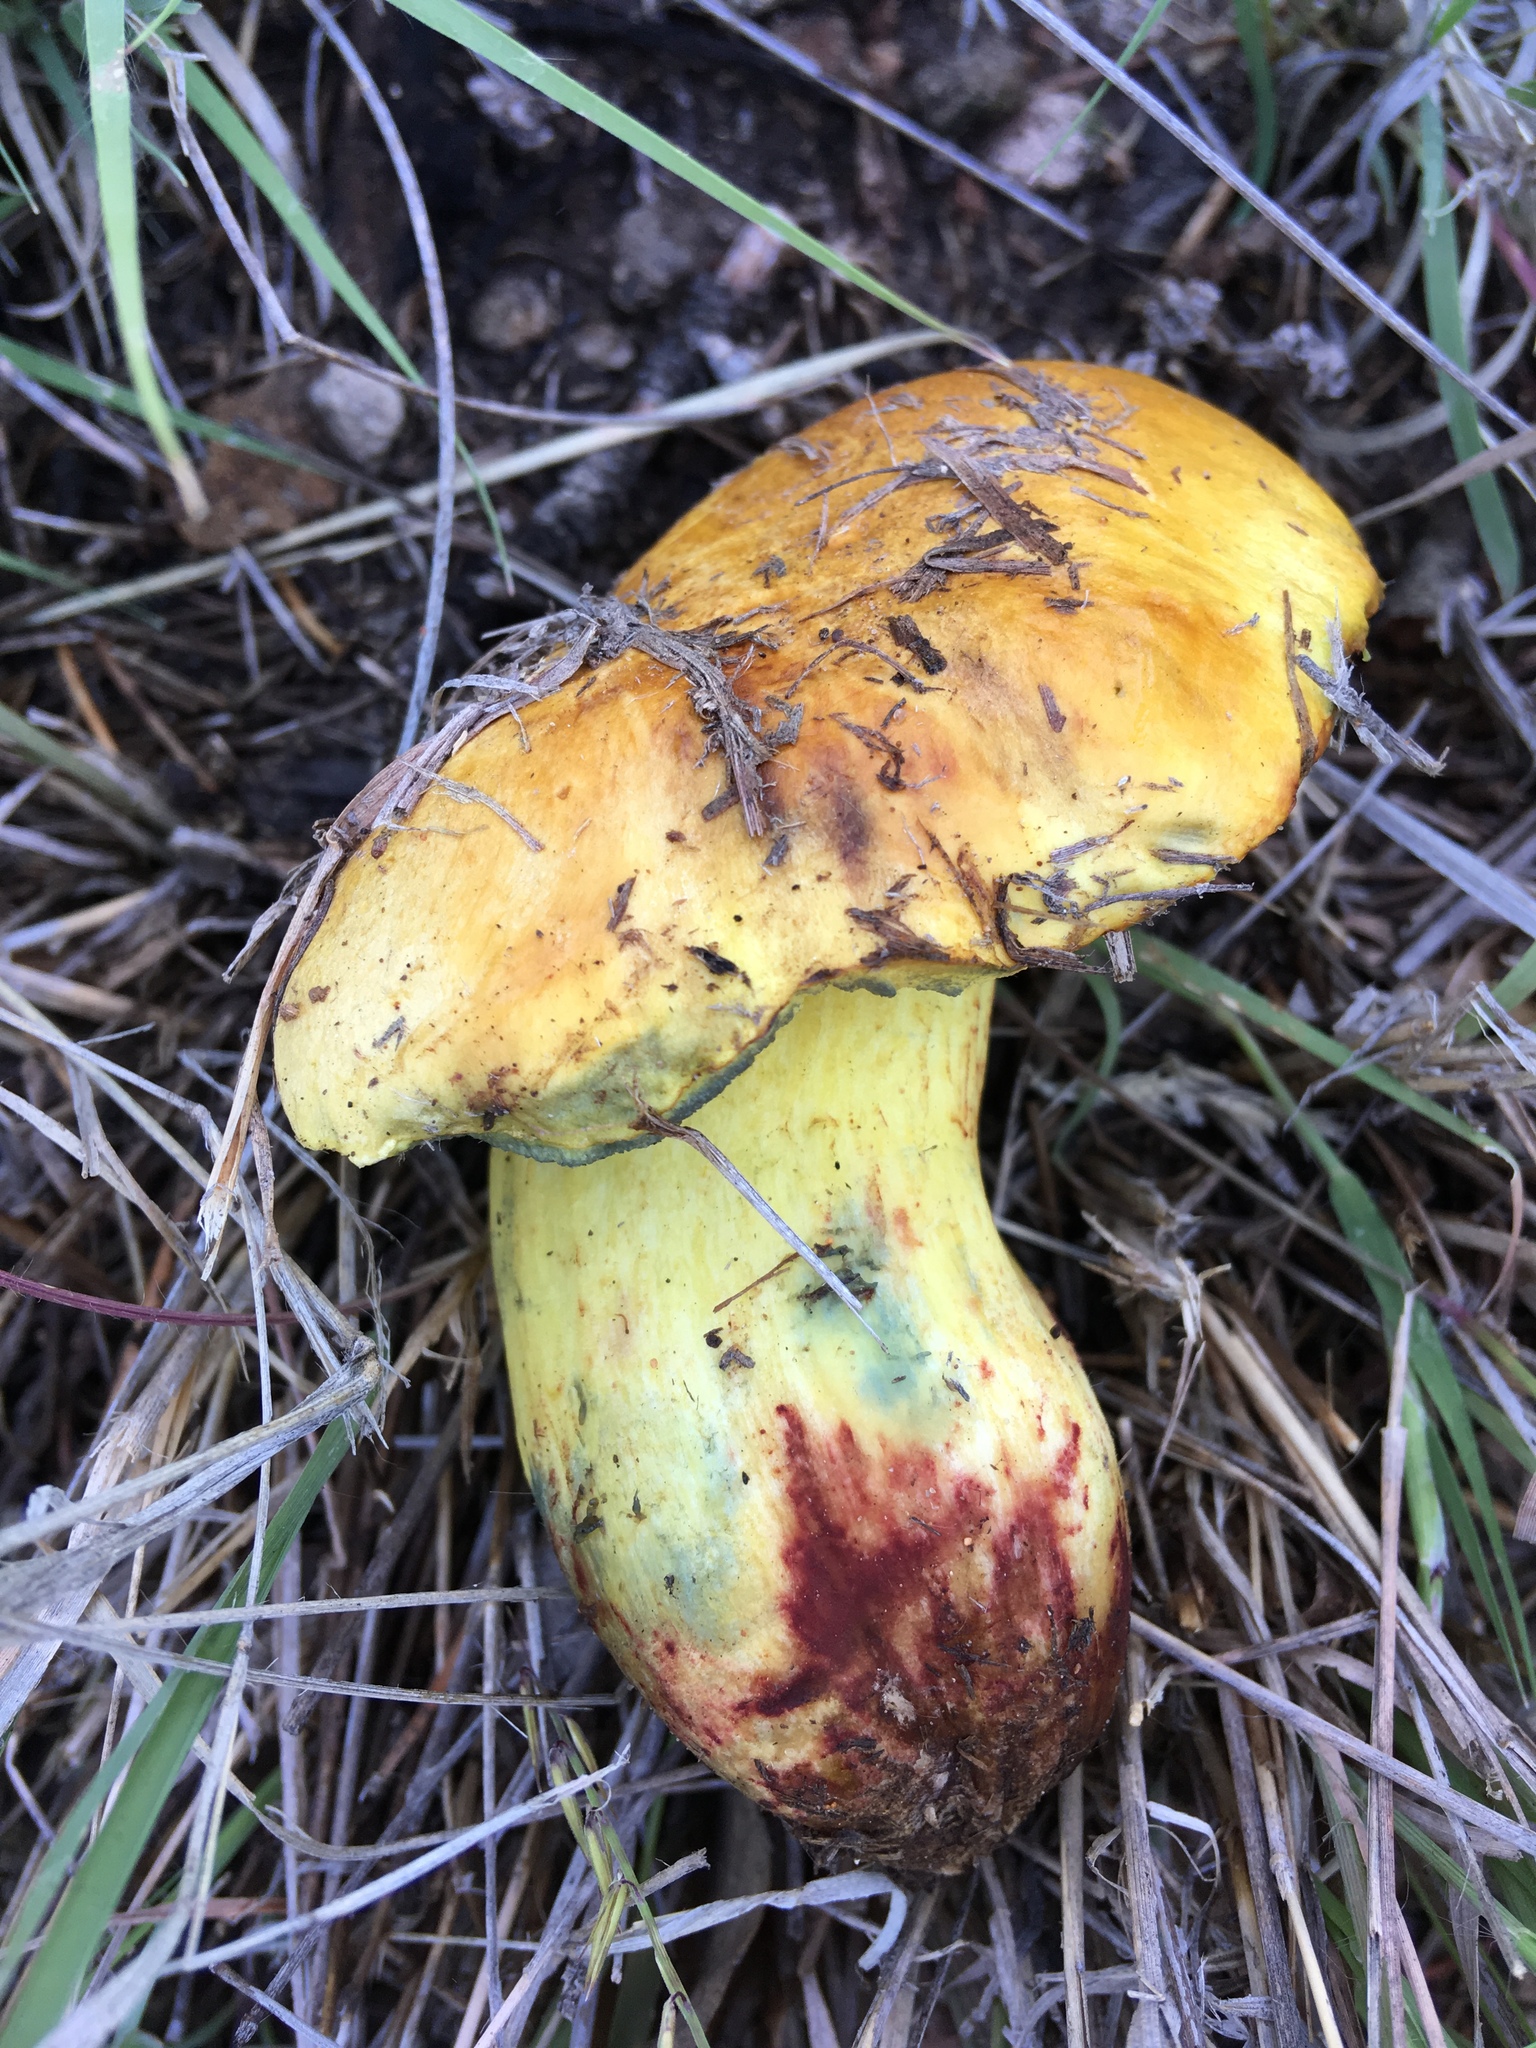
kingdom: Fungi
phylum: Basidiomycota
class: Agaricomycetes
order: Boletales
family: Boletaceae
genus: Boletus
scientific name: Boletus holoxanthus
